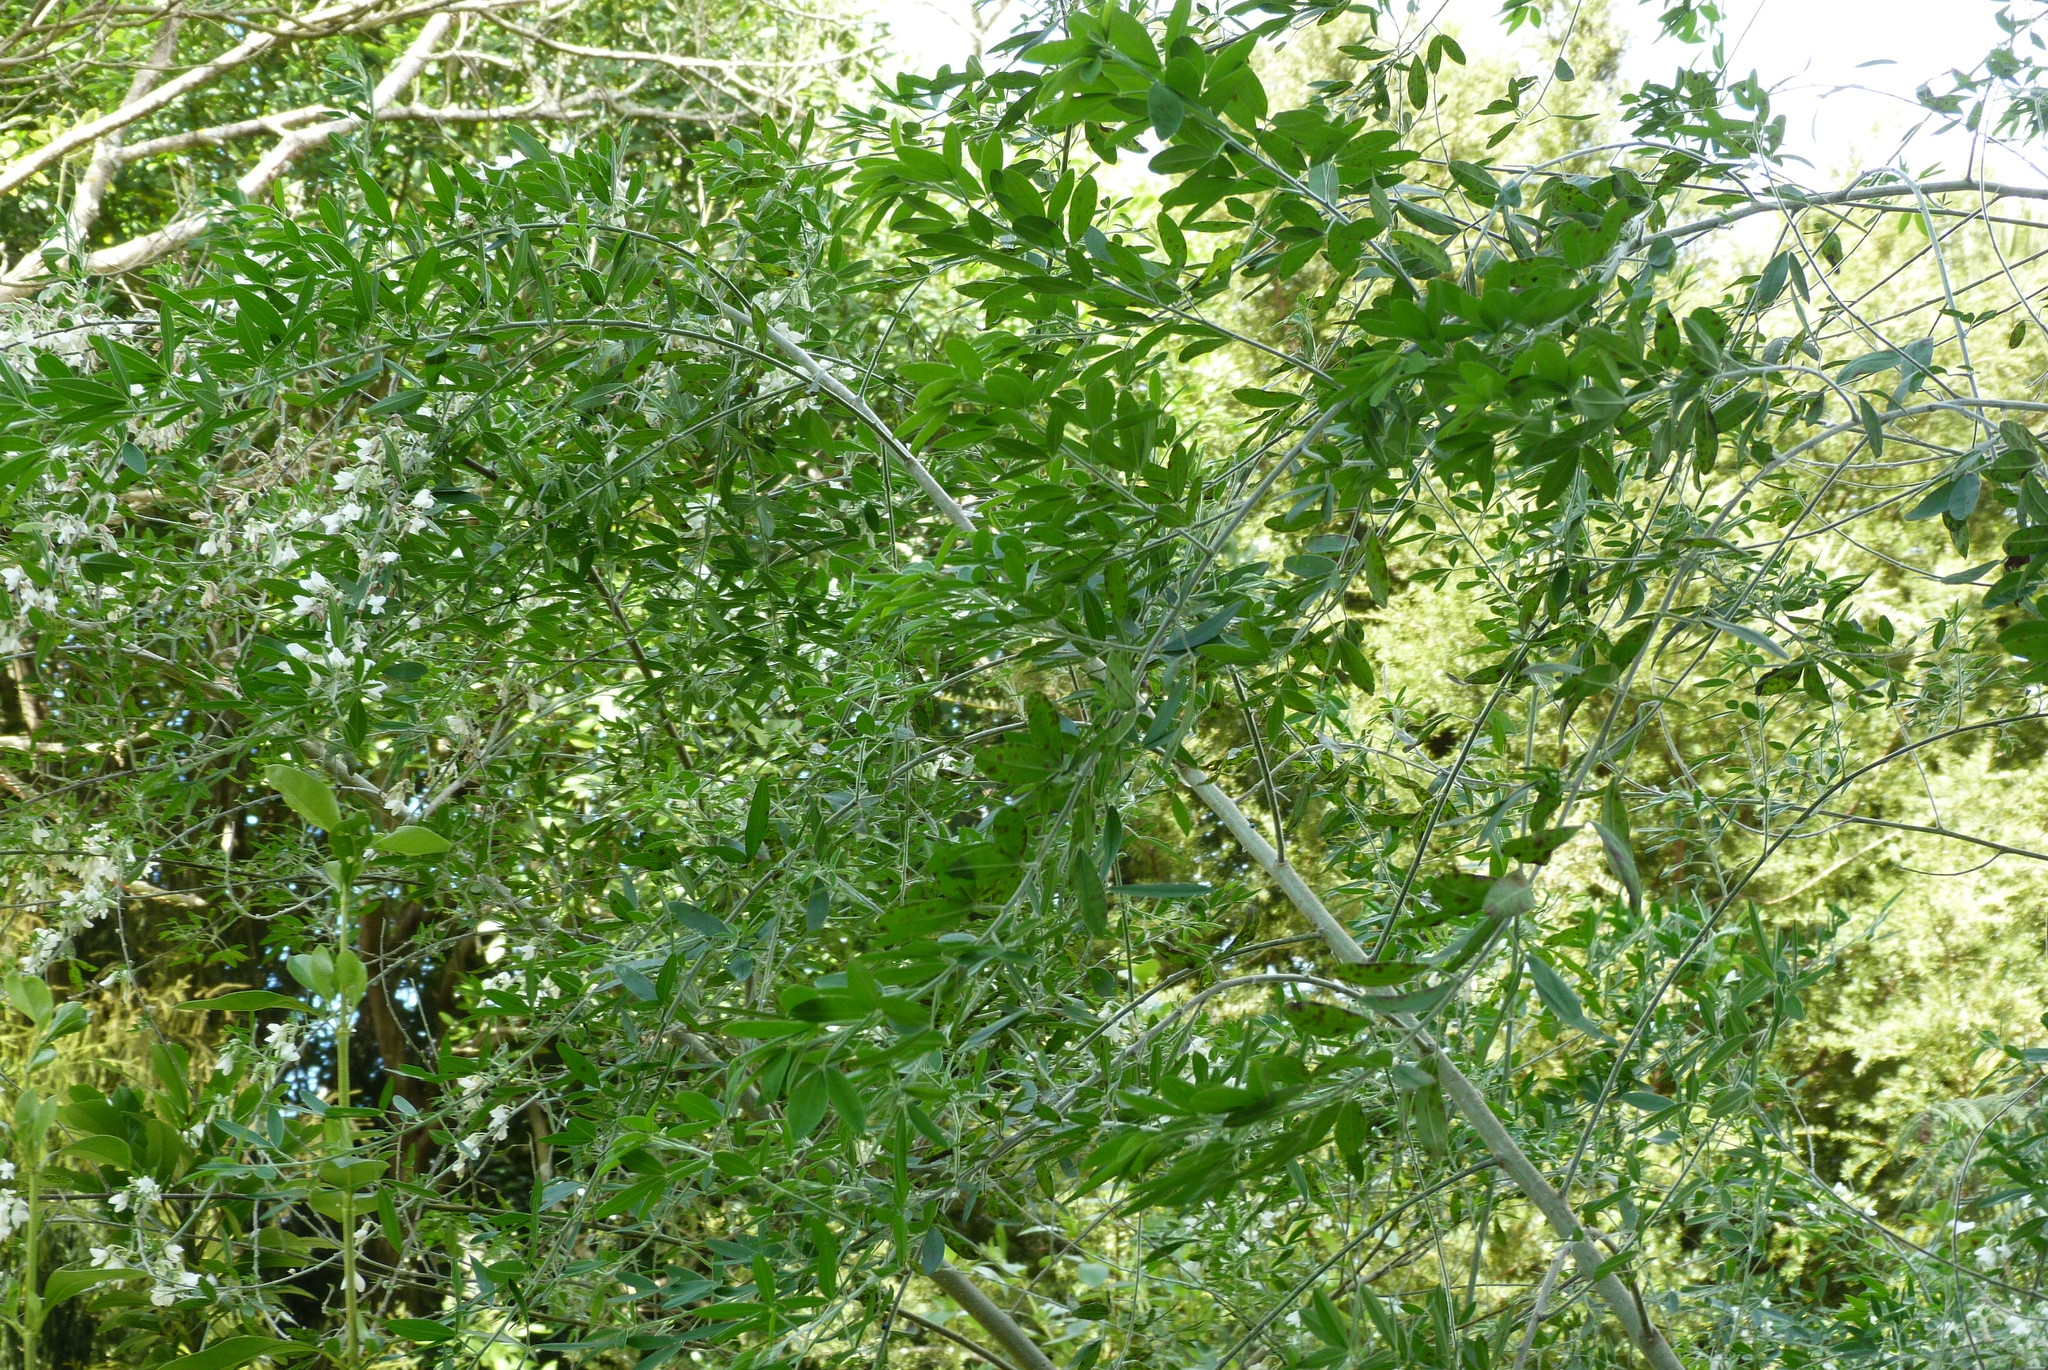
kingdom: Plantae
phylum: Tracheophyta
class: Magnoliopsida
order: Fabales
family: Fabaceae
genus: Chamaecytisus
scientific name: Chamaecytisus prolifer
